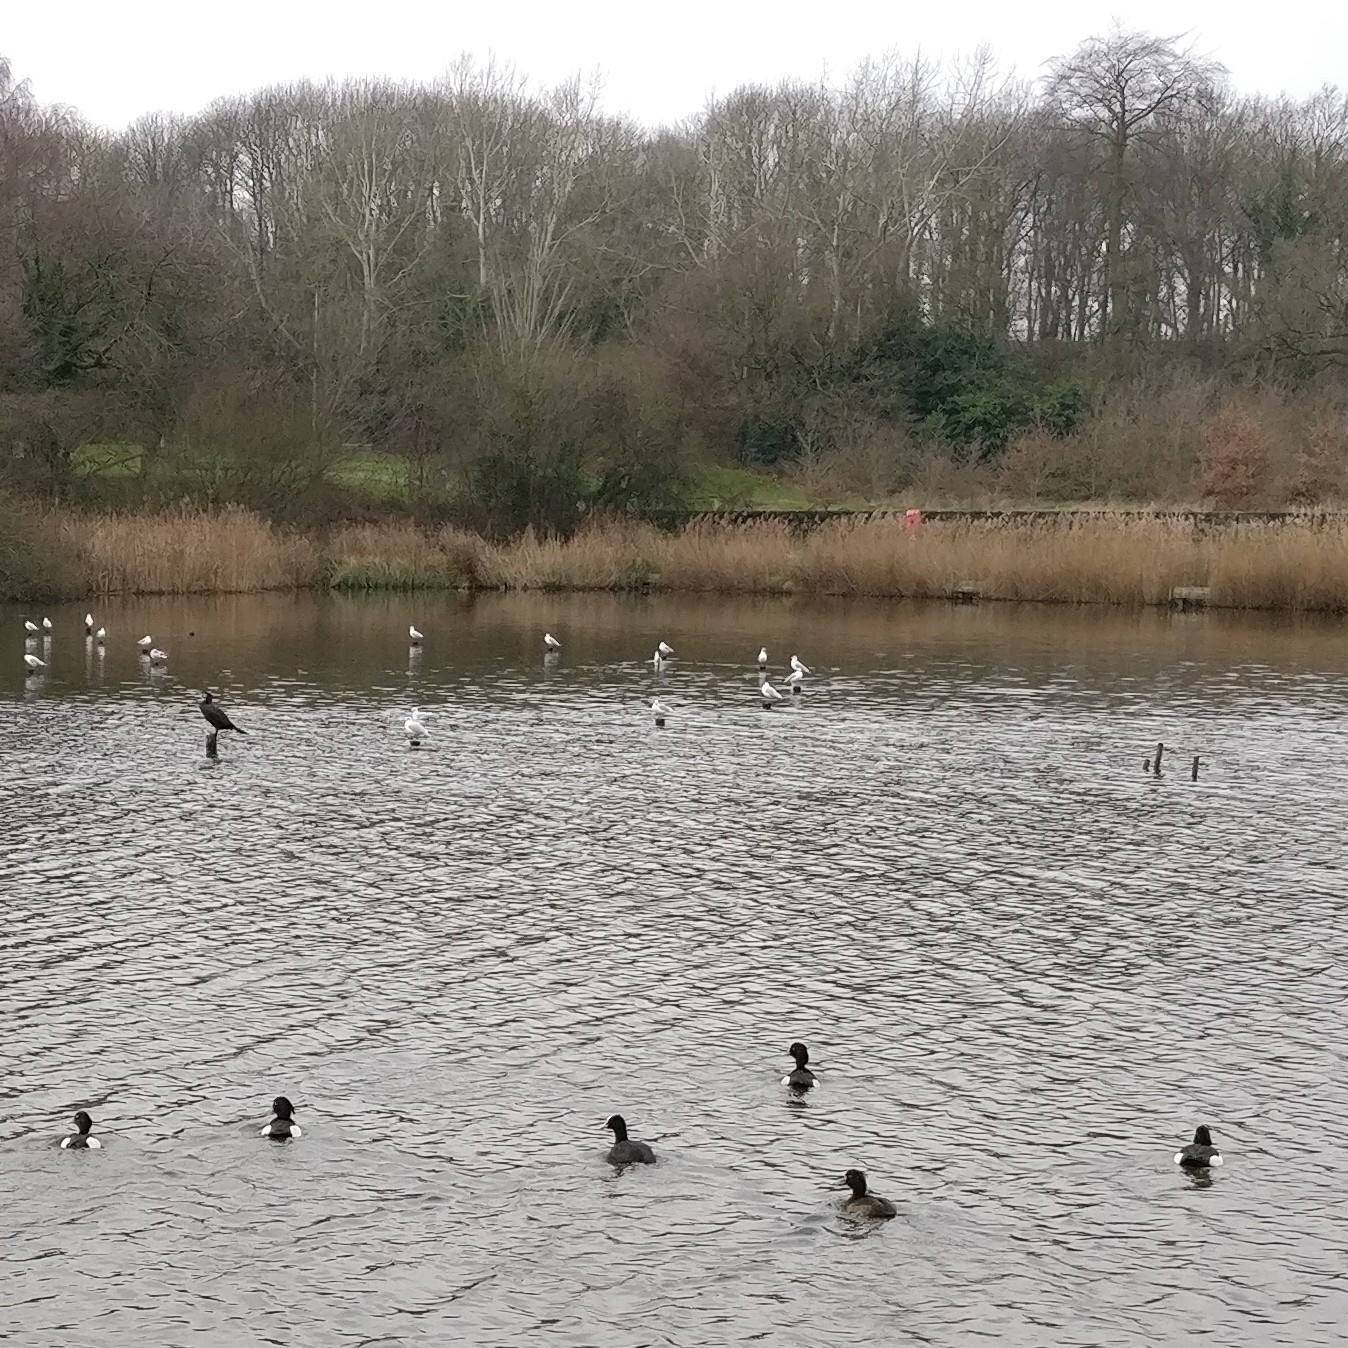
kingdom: Animalia
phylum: Chordata
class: Aves
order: Gruiformes
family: Rallidae
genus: Fulica
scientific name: Fulica atra
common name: Eurasian coot
